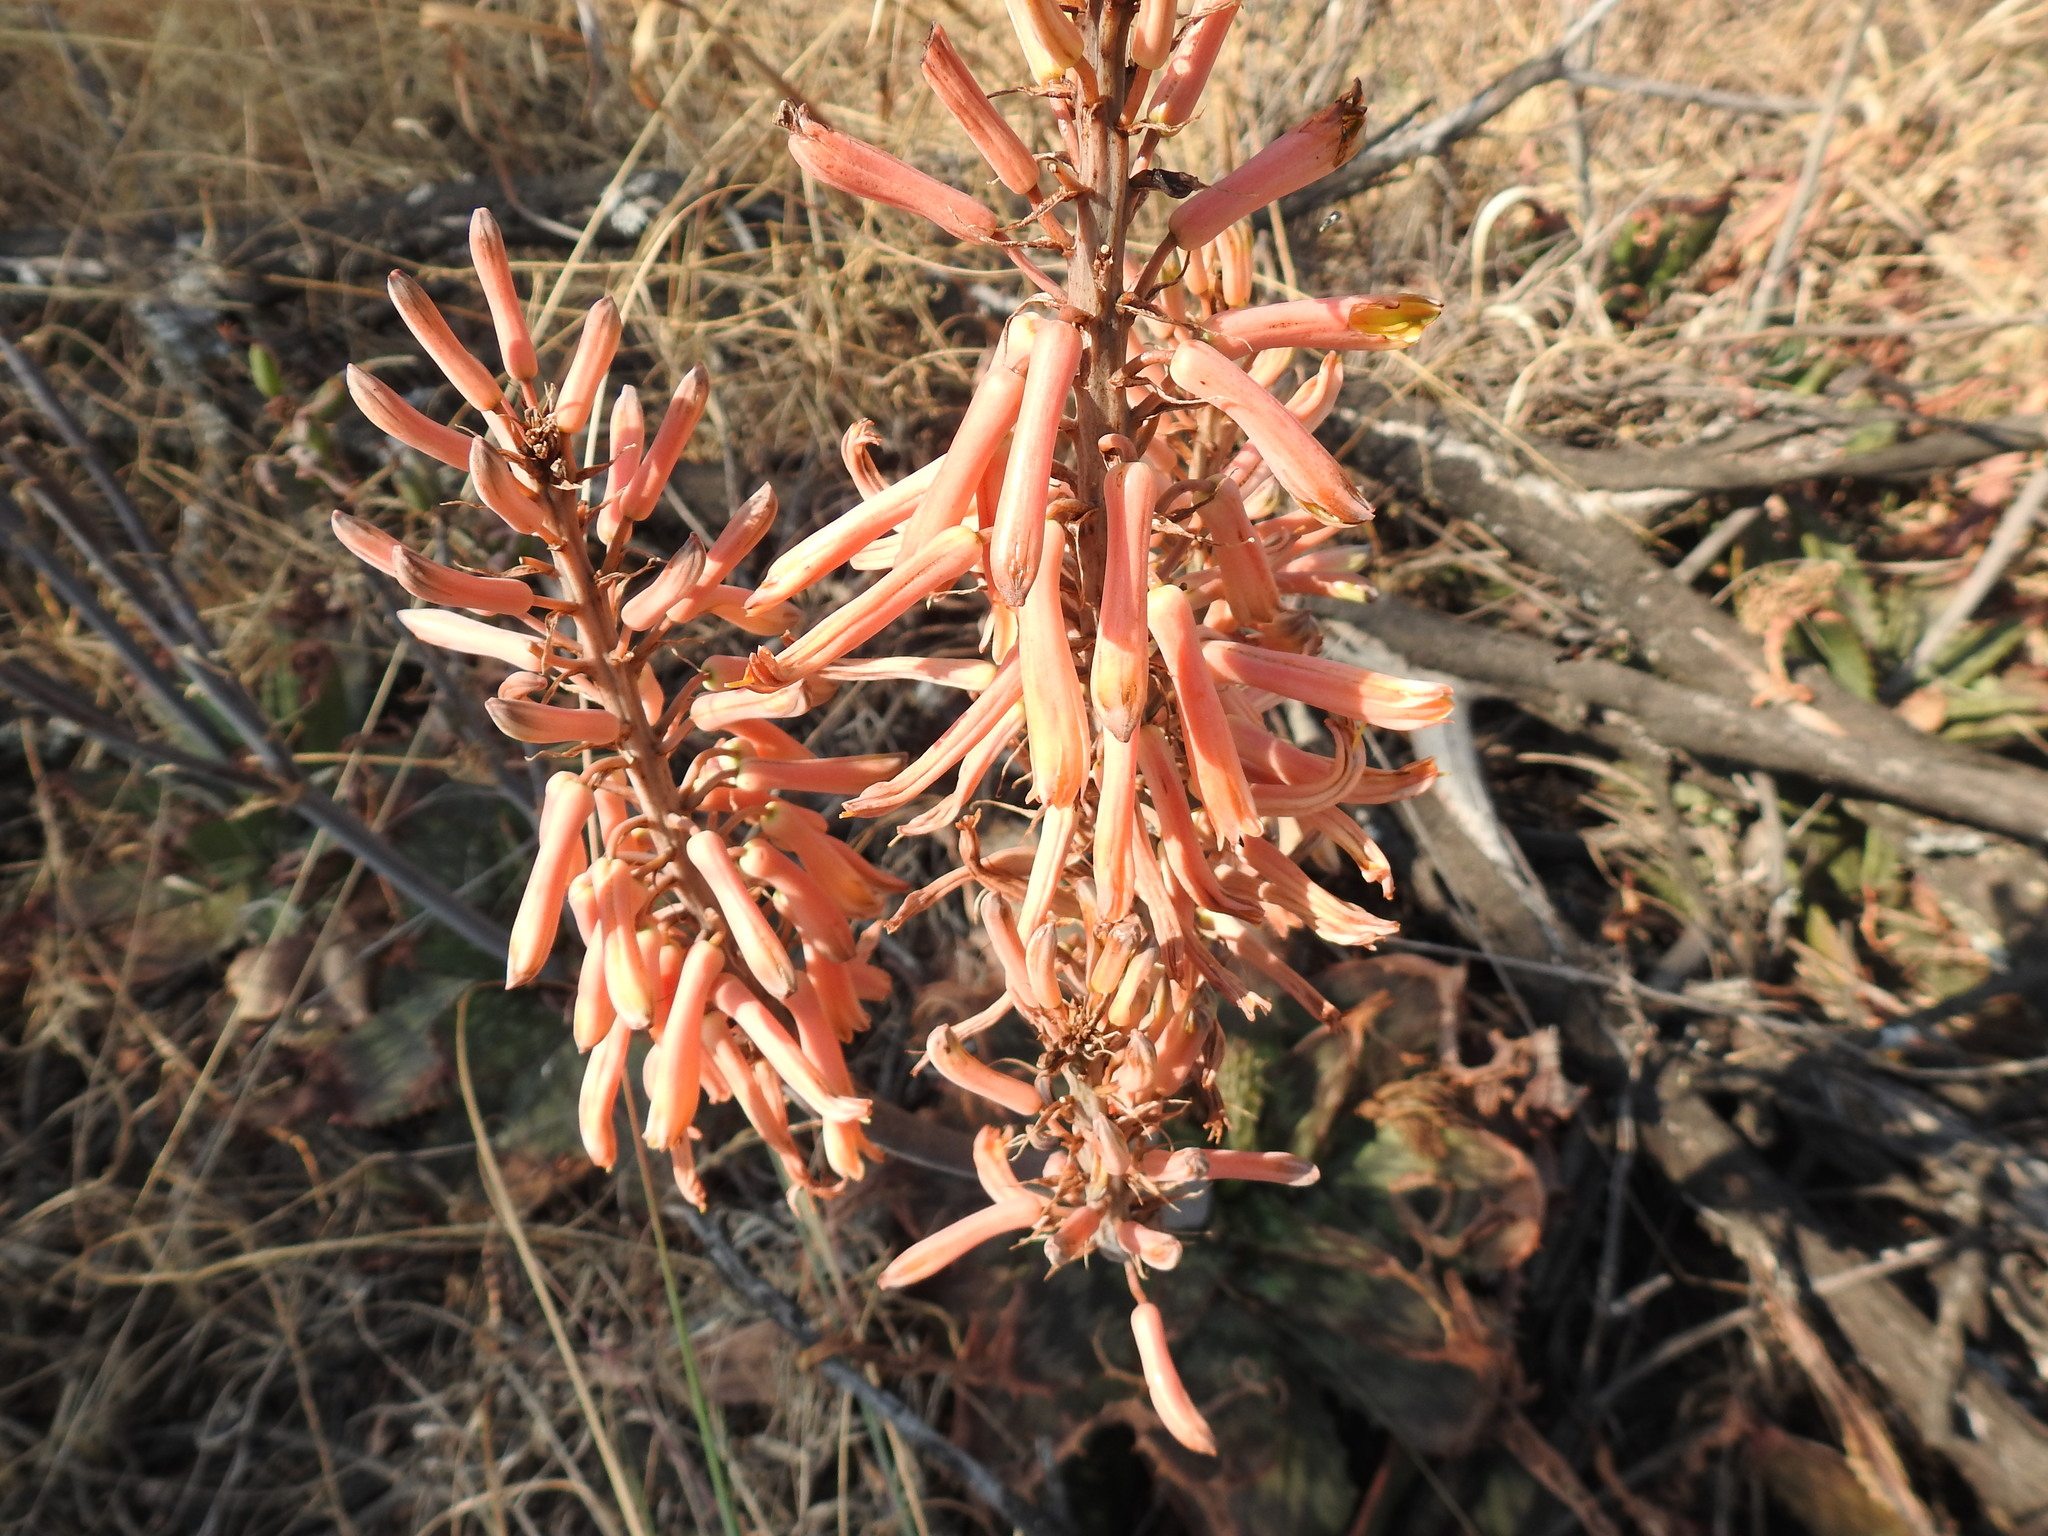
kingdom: Plantae
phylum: Tracheophyta
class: Liliopsida
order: Asparagales
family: Asphodelaceae
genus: Aloe
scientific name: Aloe davyana
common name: Spotted aloe
